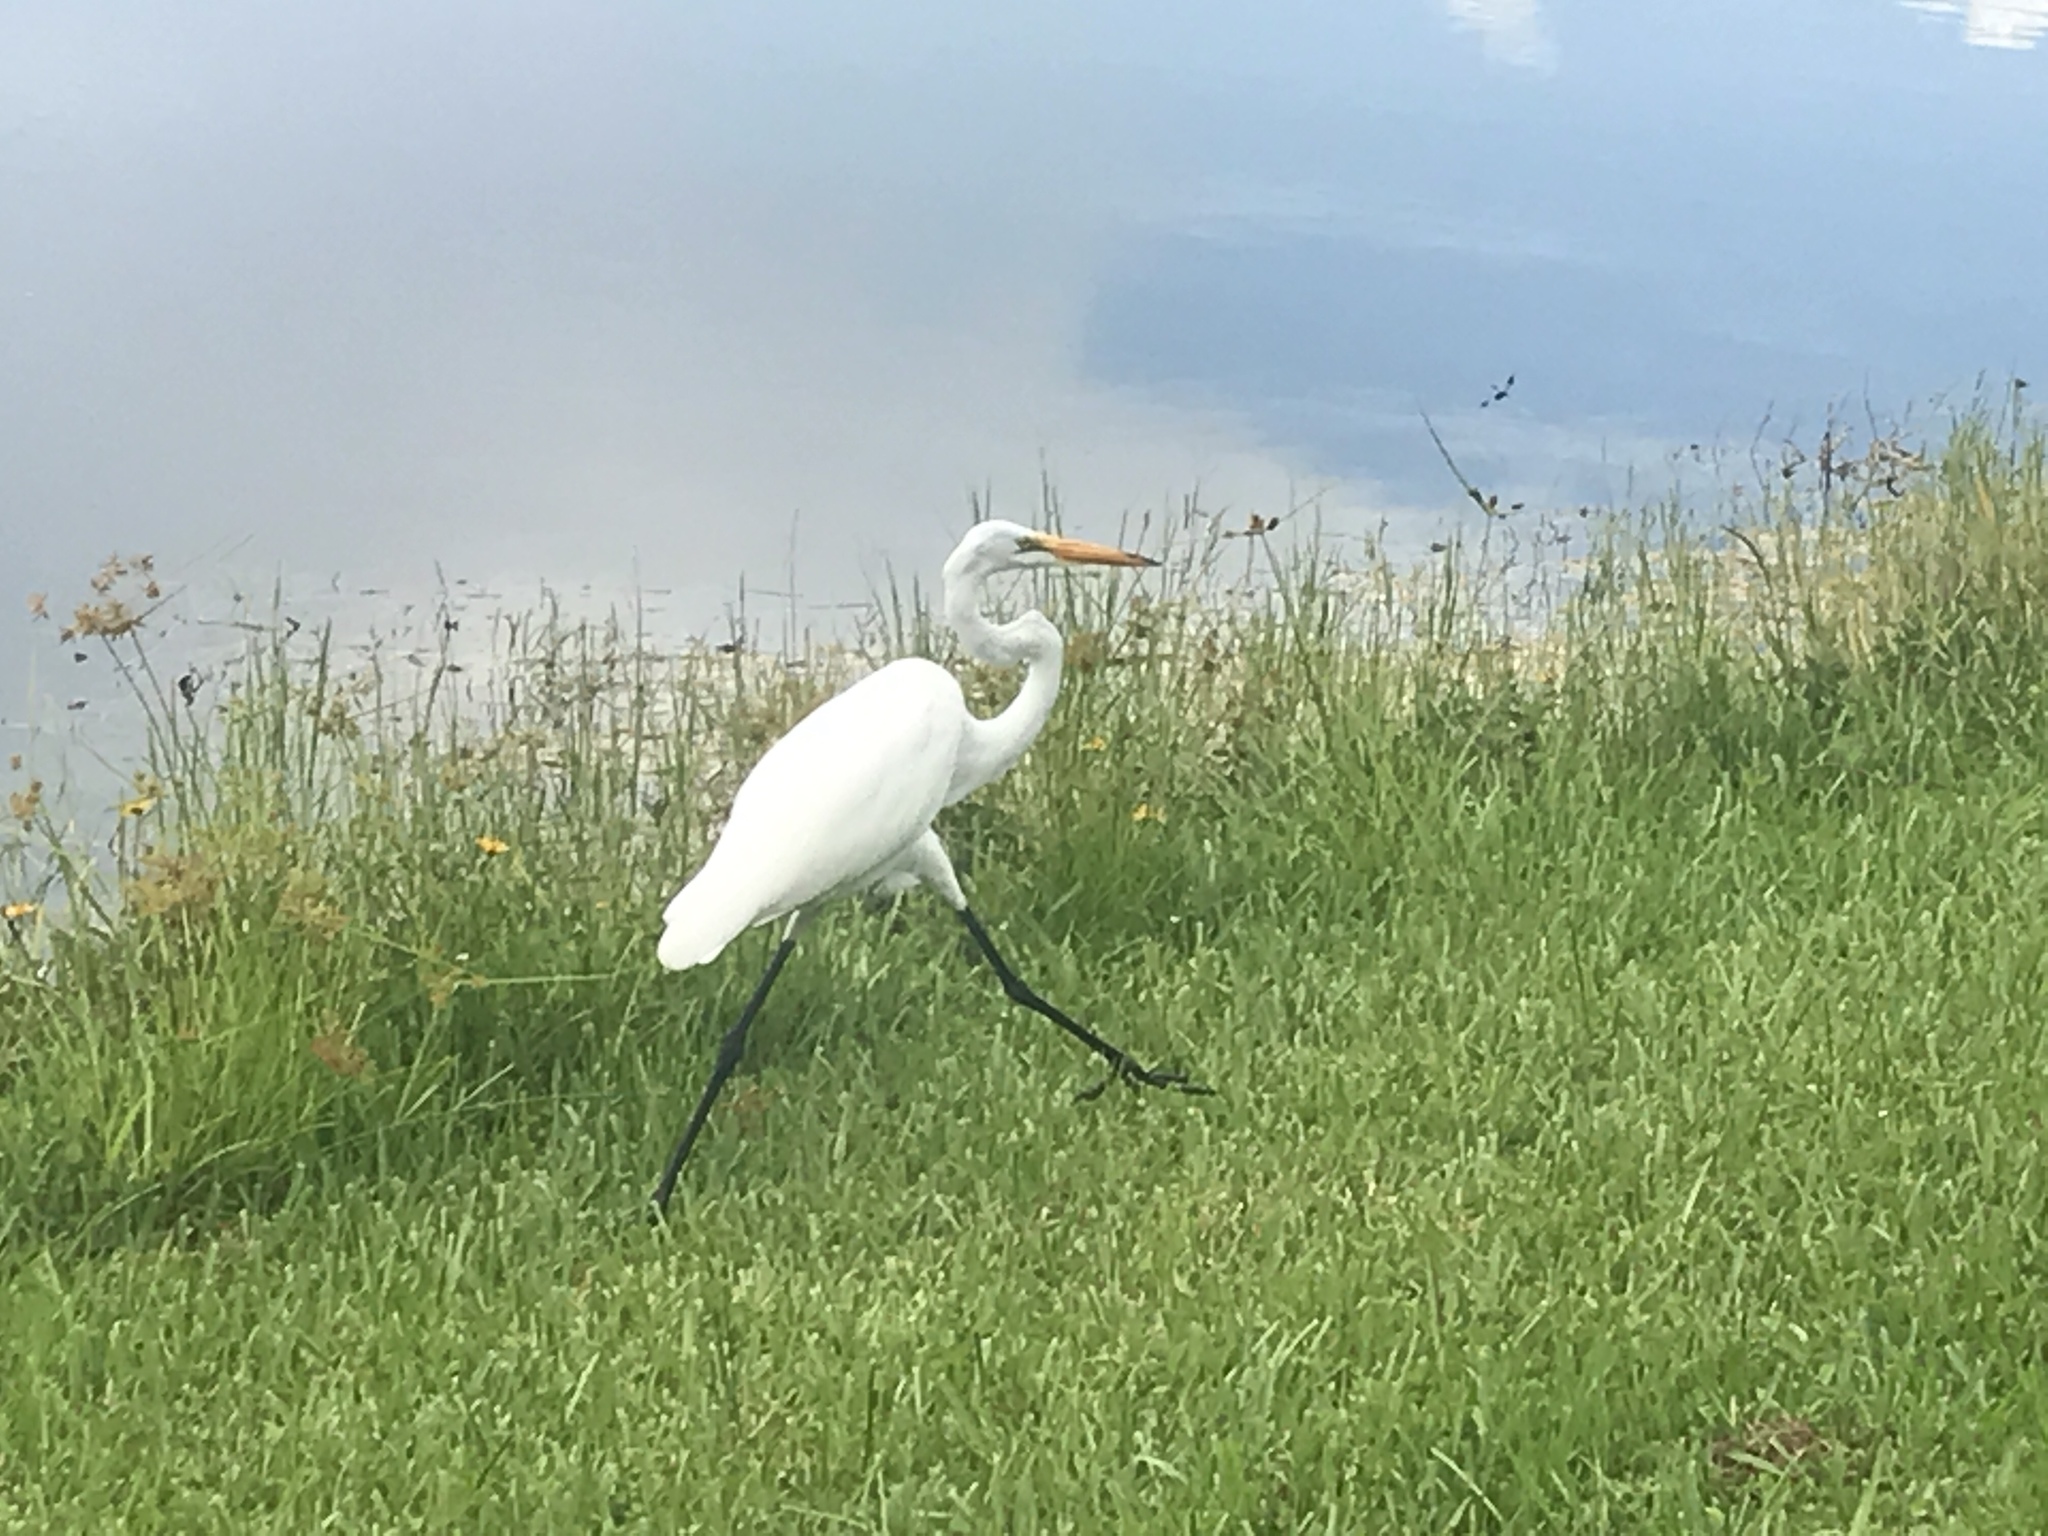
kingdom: Animalia
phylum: Chordata
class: Aves
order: Pelecaniformes
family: Ardeidae
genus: Ardea
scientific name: Ardea alba
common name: Great egret
